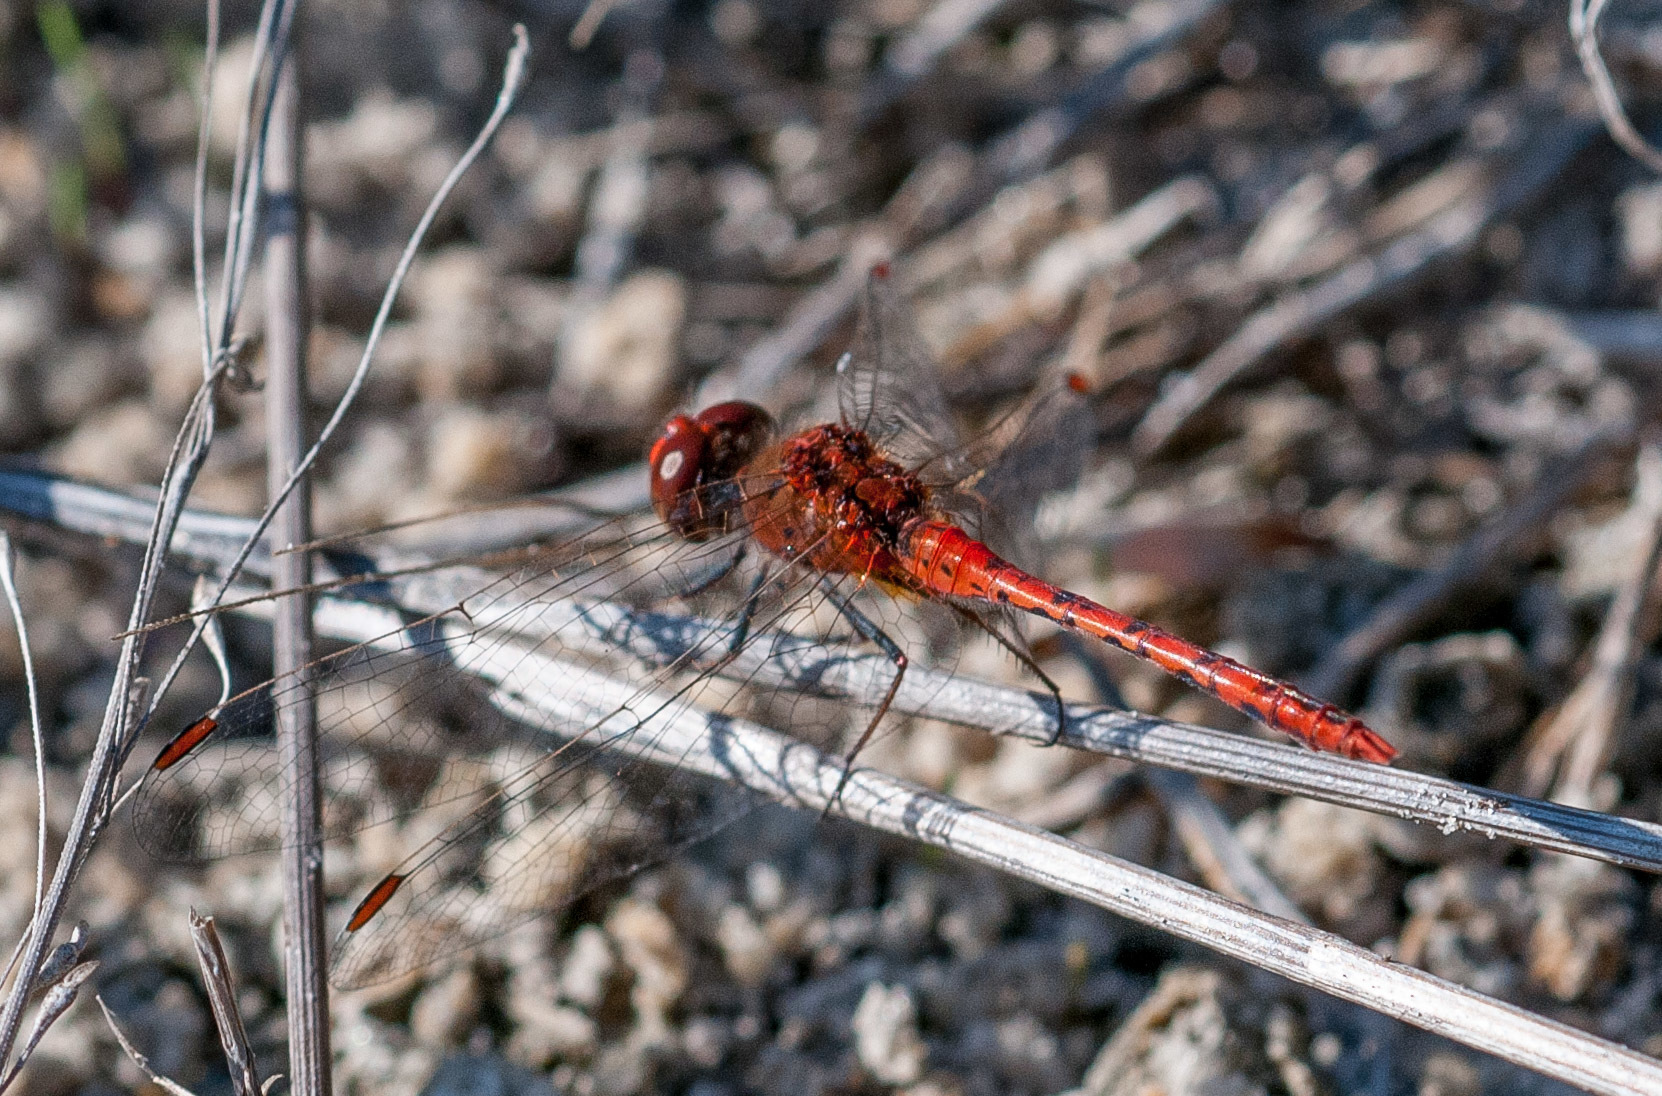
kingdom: Animalia
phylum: Arthropoda
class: Insecta
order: Odonata
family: Libellulidae
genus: Diplacodes
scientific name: Diplacodes bipunctata
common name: Red percher dragonfly
